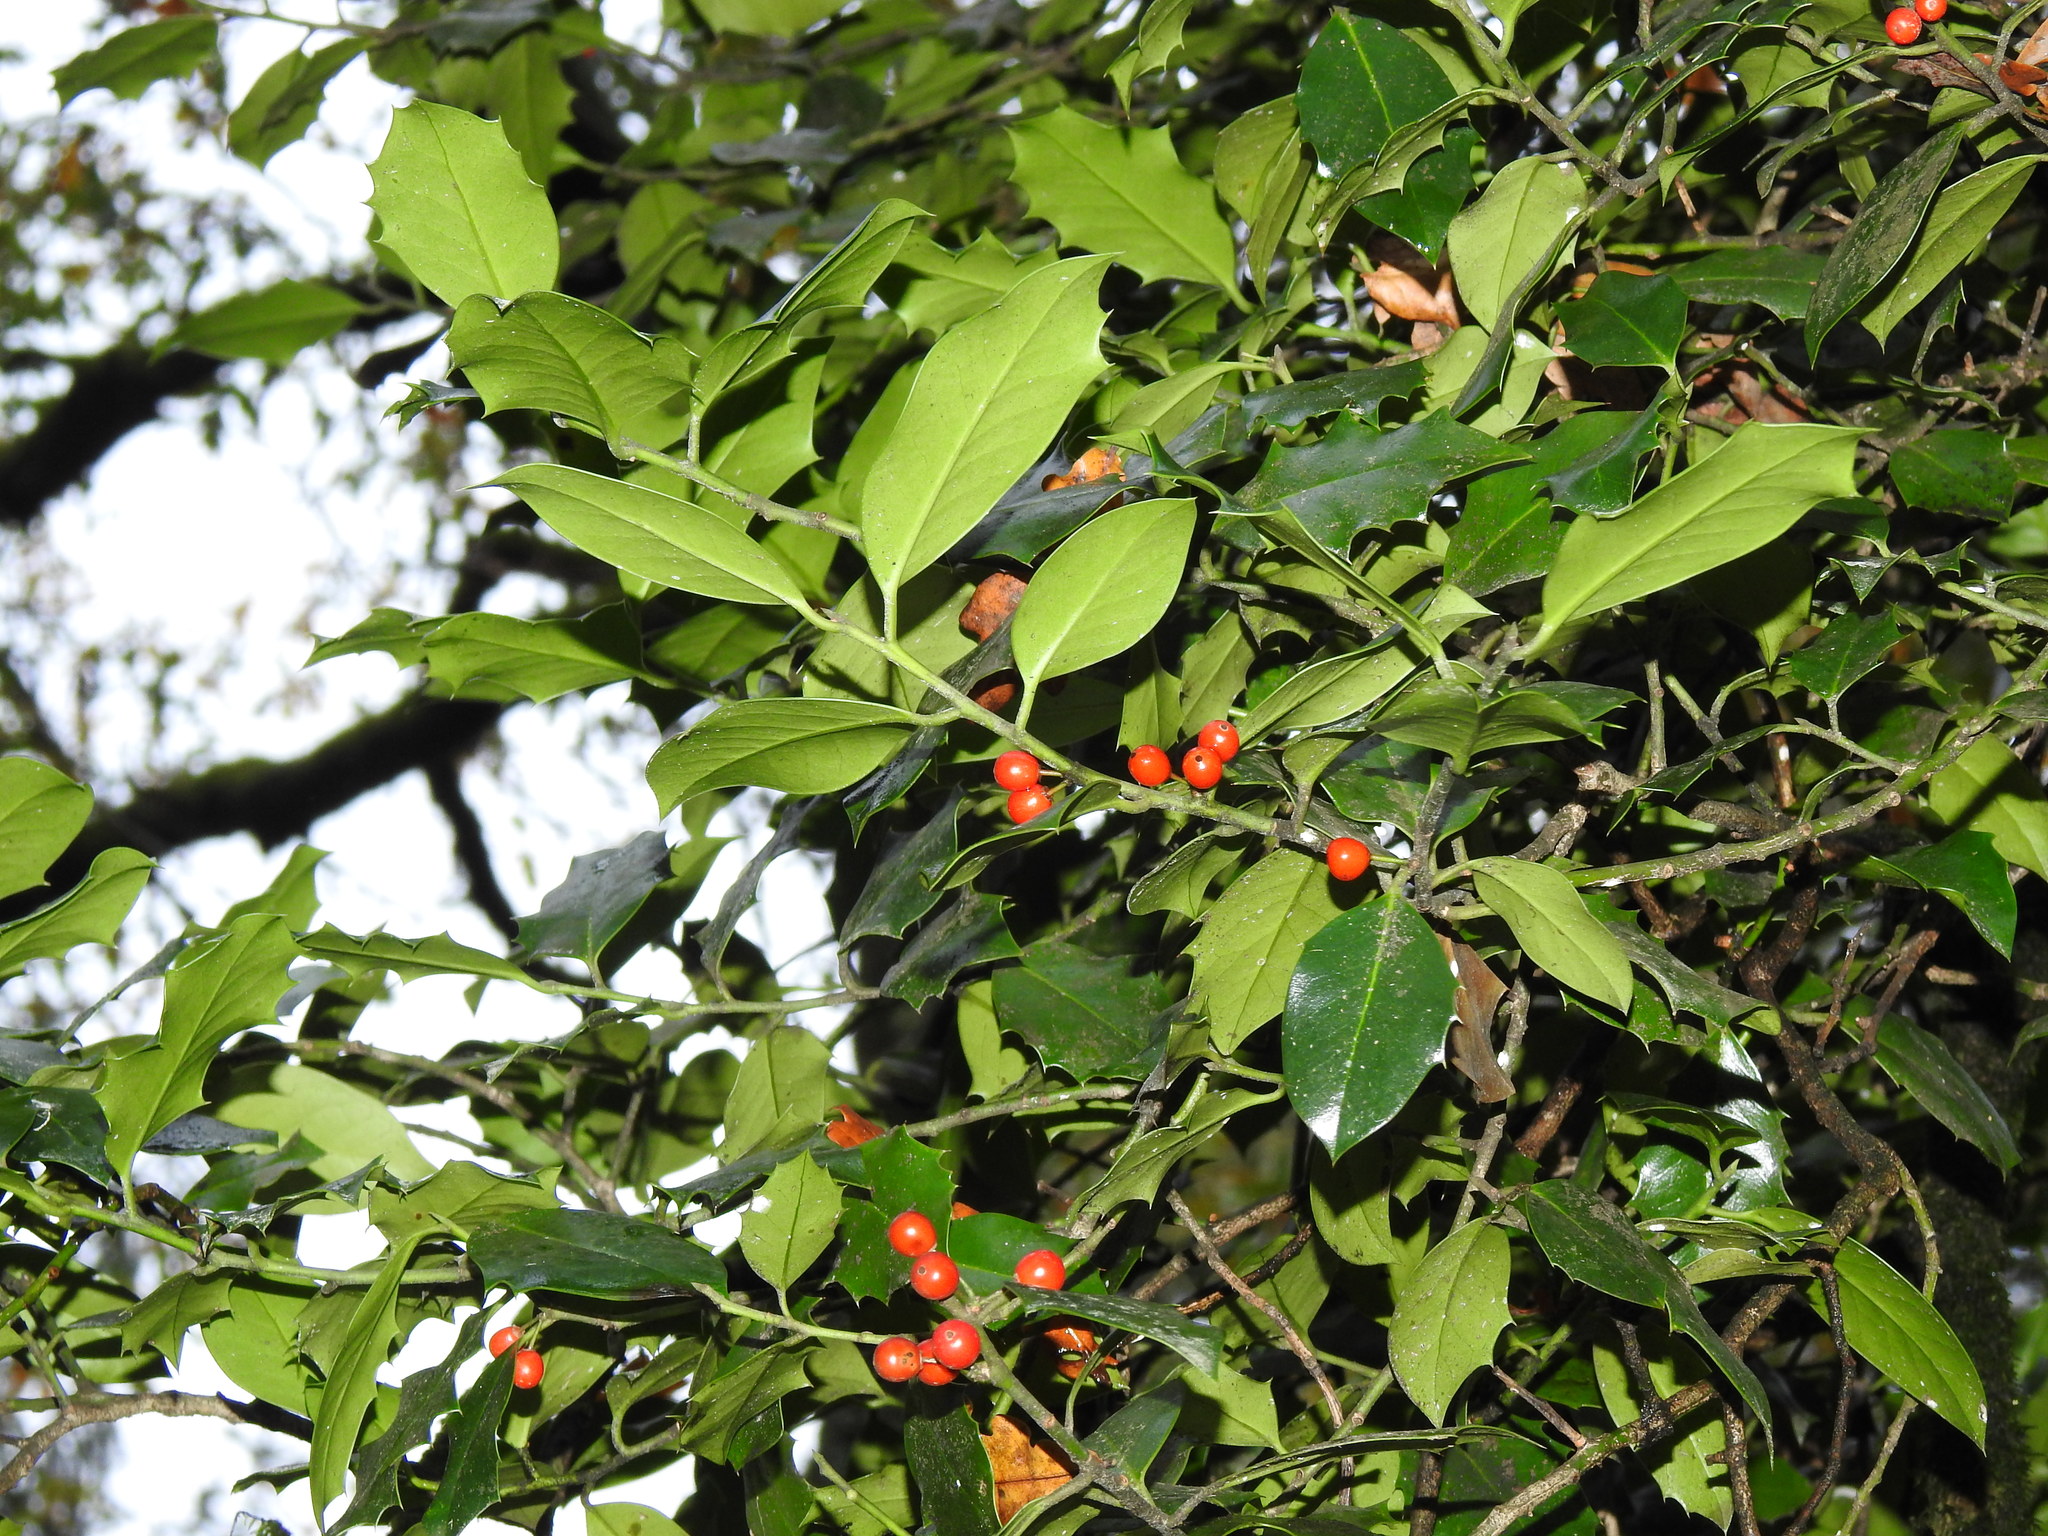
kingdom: Plantae
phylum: Tracheophyta
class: Magnoliopsida
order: Aquifoliales
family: Aquifoliaceae
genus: Ilex
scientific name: Ilex aquifolium
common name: English holly
